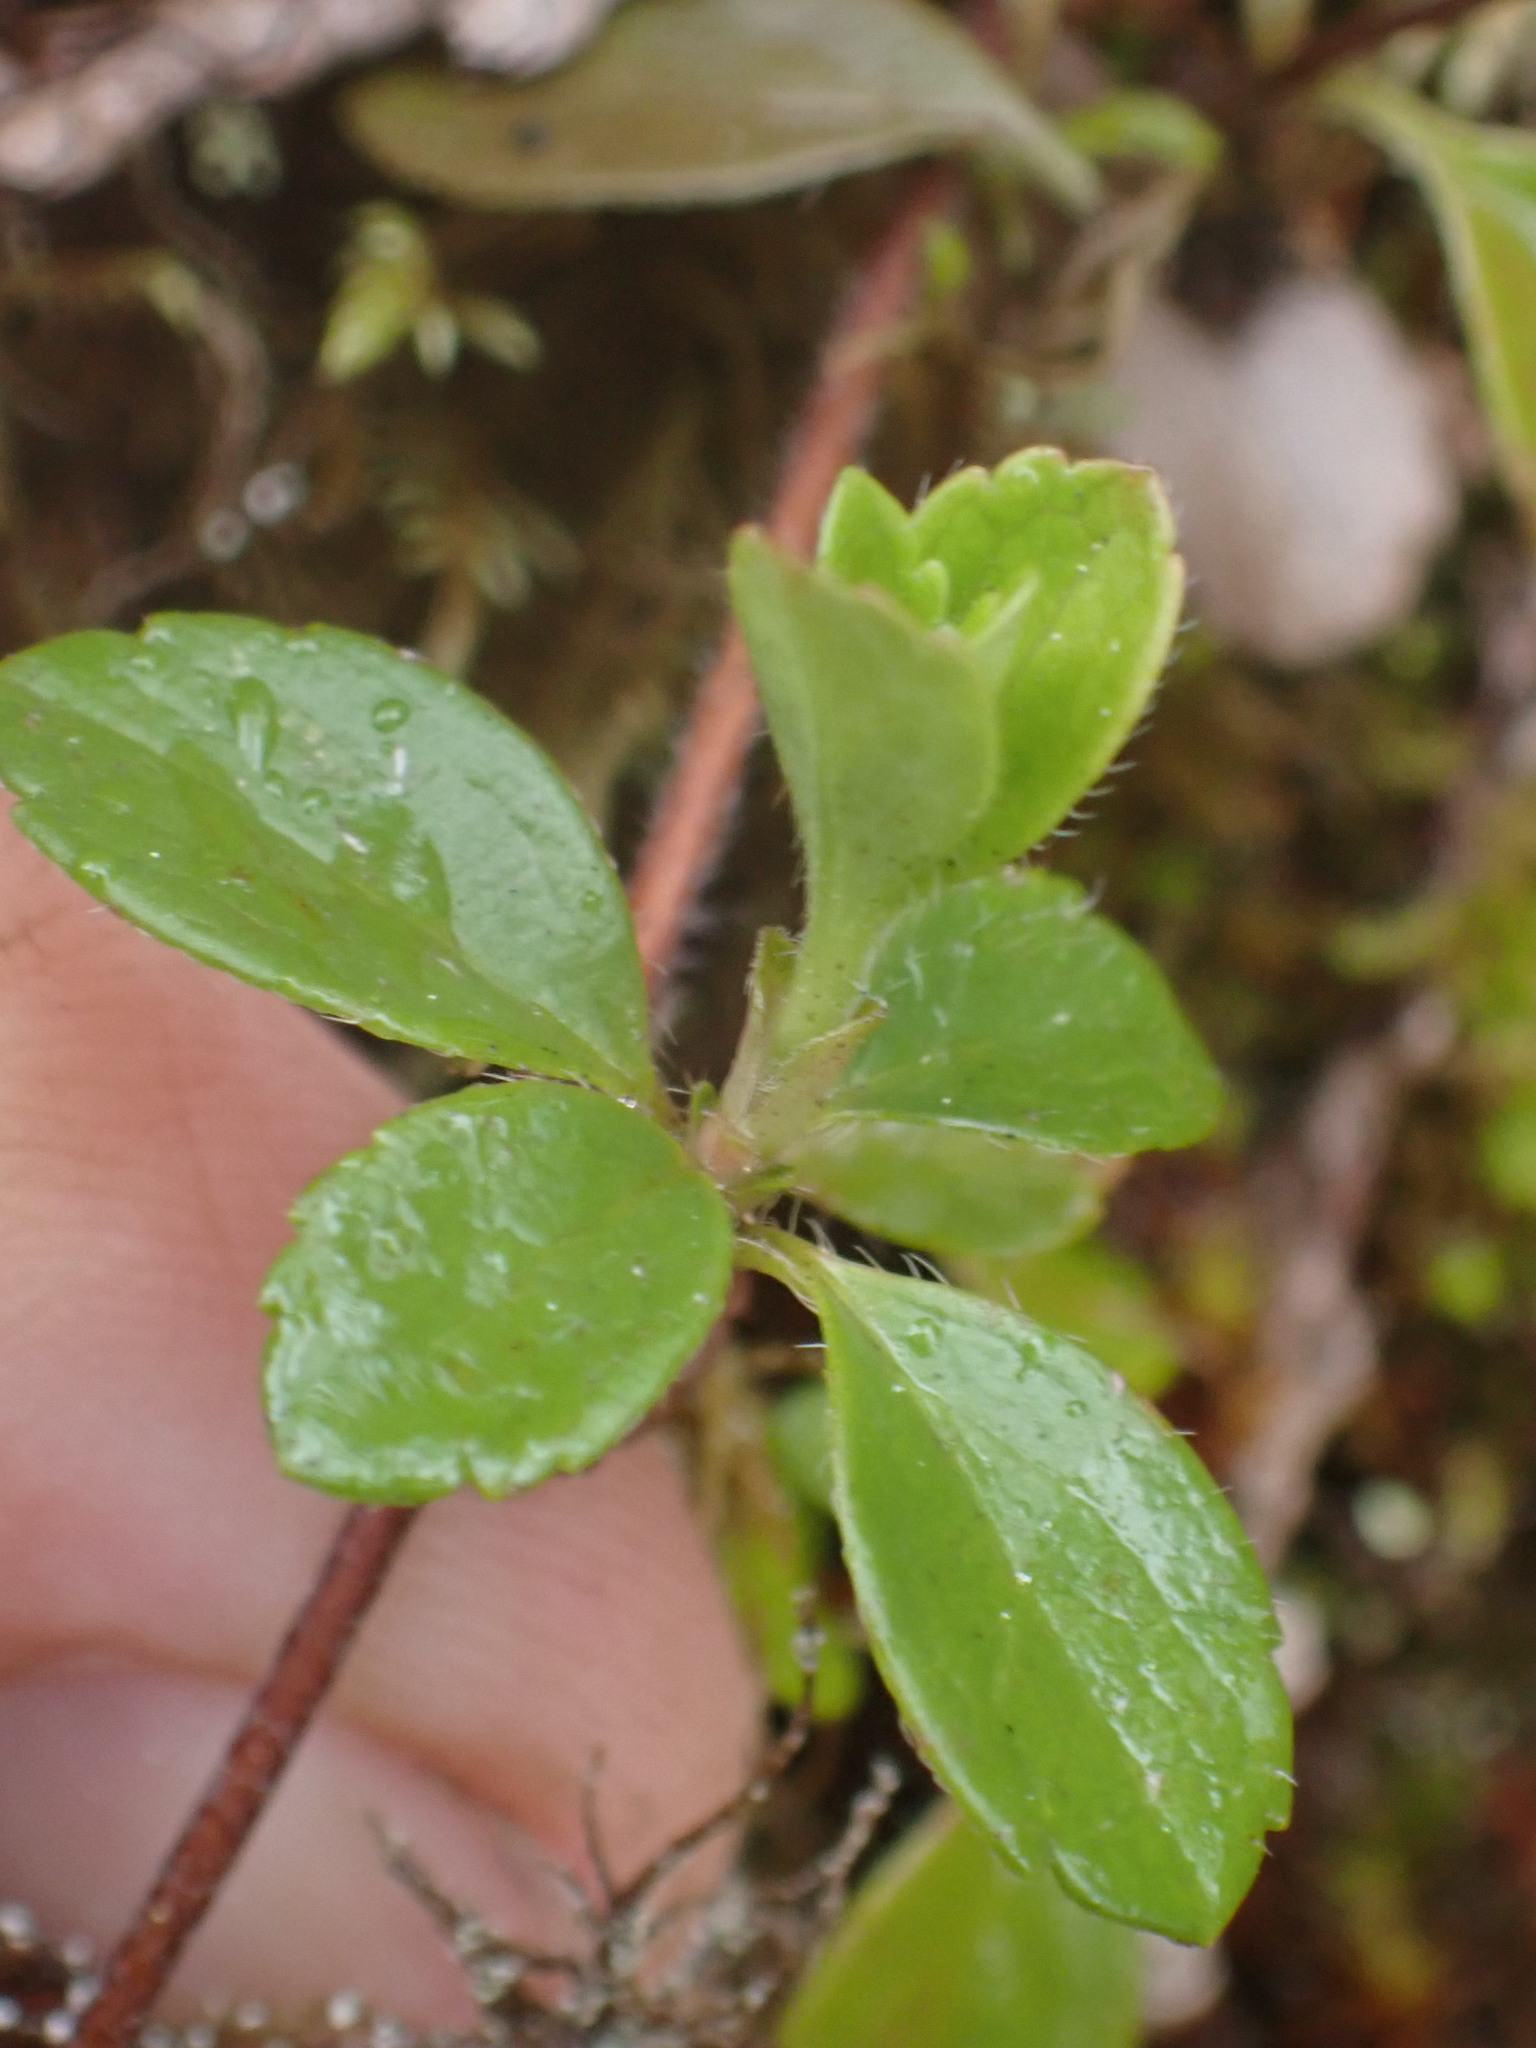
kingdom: Plantae
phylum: Tracheophyta
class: Magnoliopsida
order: Dipsacales
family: Caprifoliaceae
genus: Linnaea
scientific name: Linnaea borealis
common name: Twinflower
